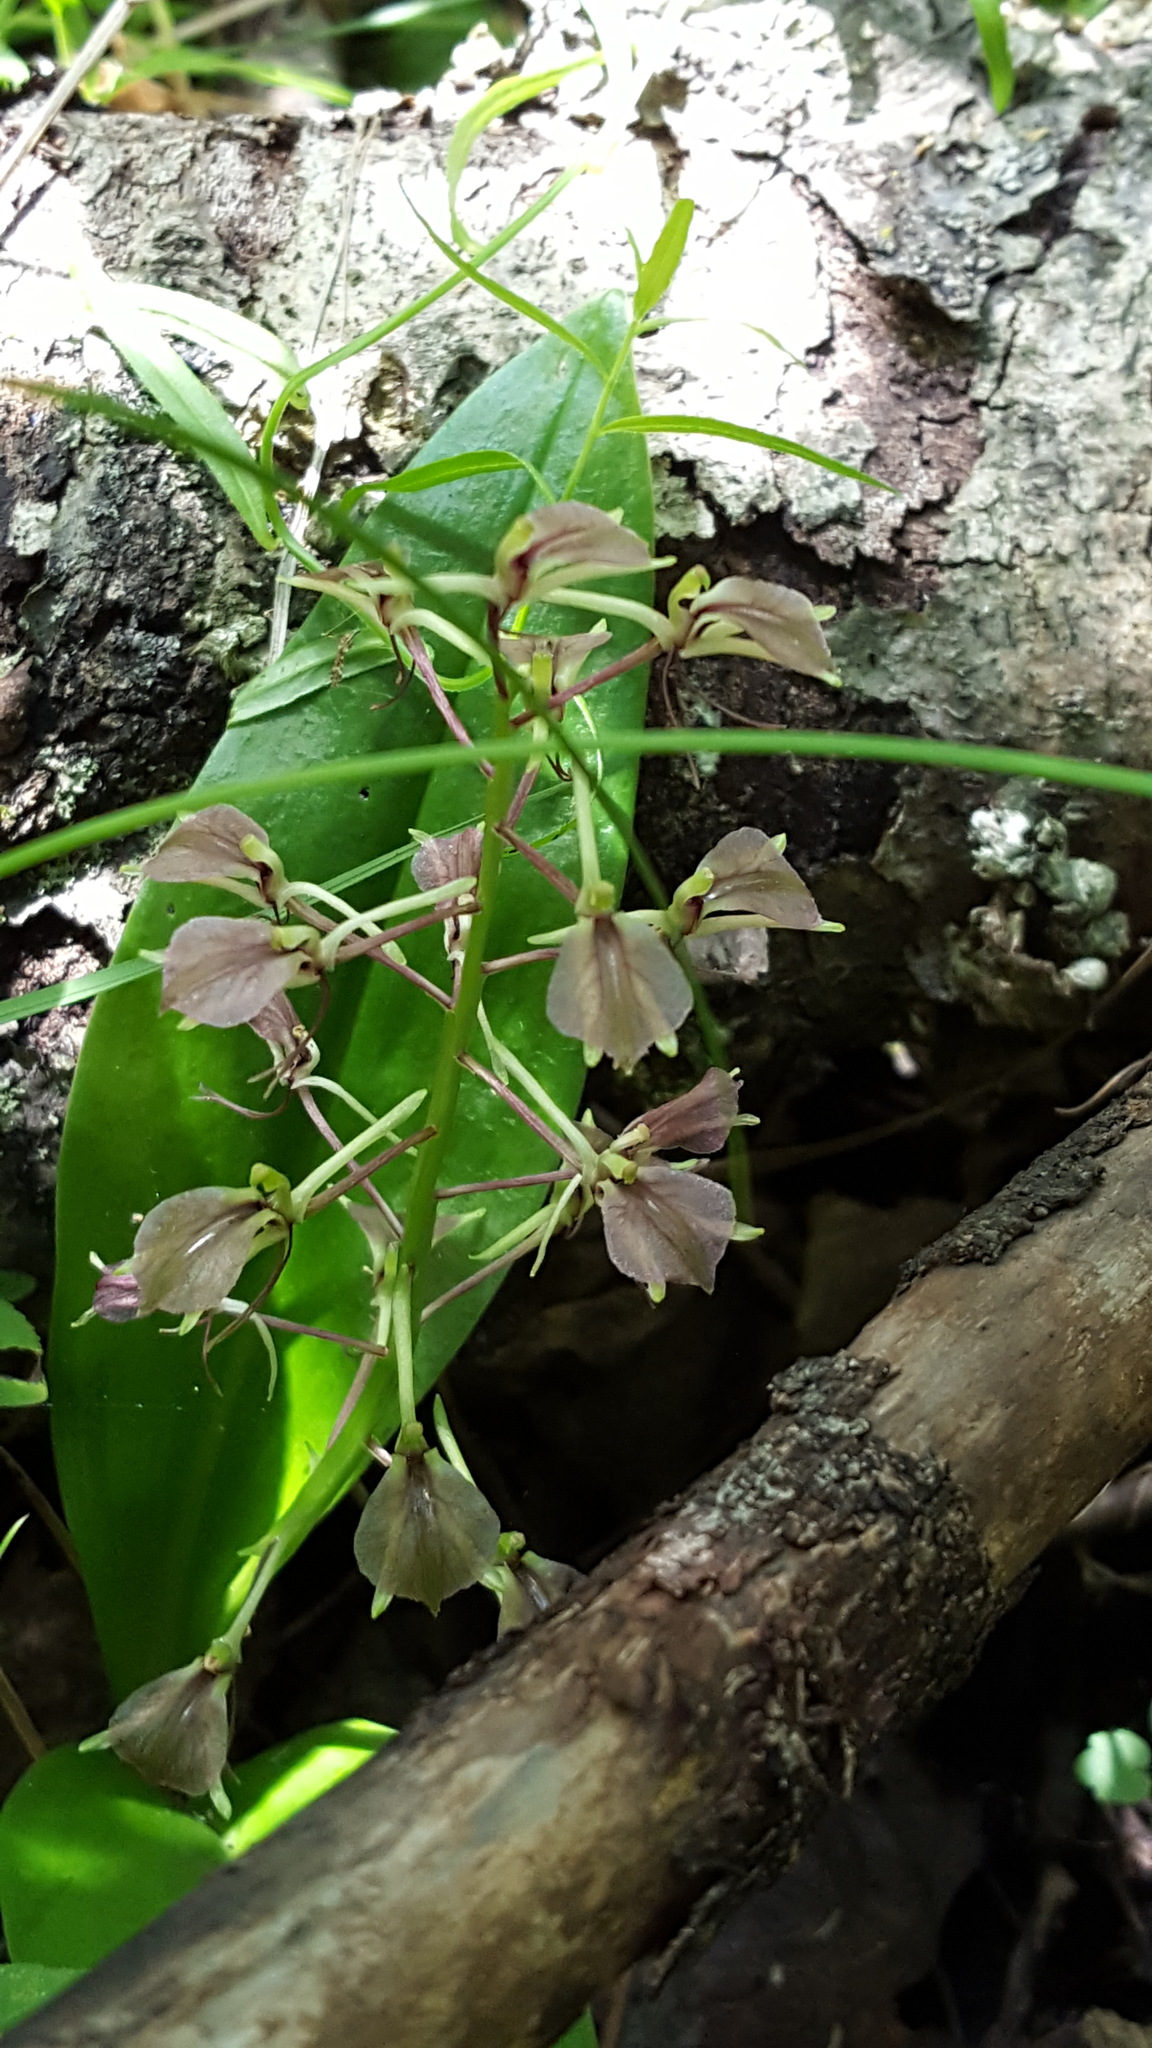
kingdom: Plantae
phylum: Tracheophyta
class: Liliopsida
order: Asparagales
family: Orchidaceae
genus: Liparis
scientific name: Liparis liliifolia
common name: Brown wide-lip orchid
